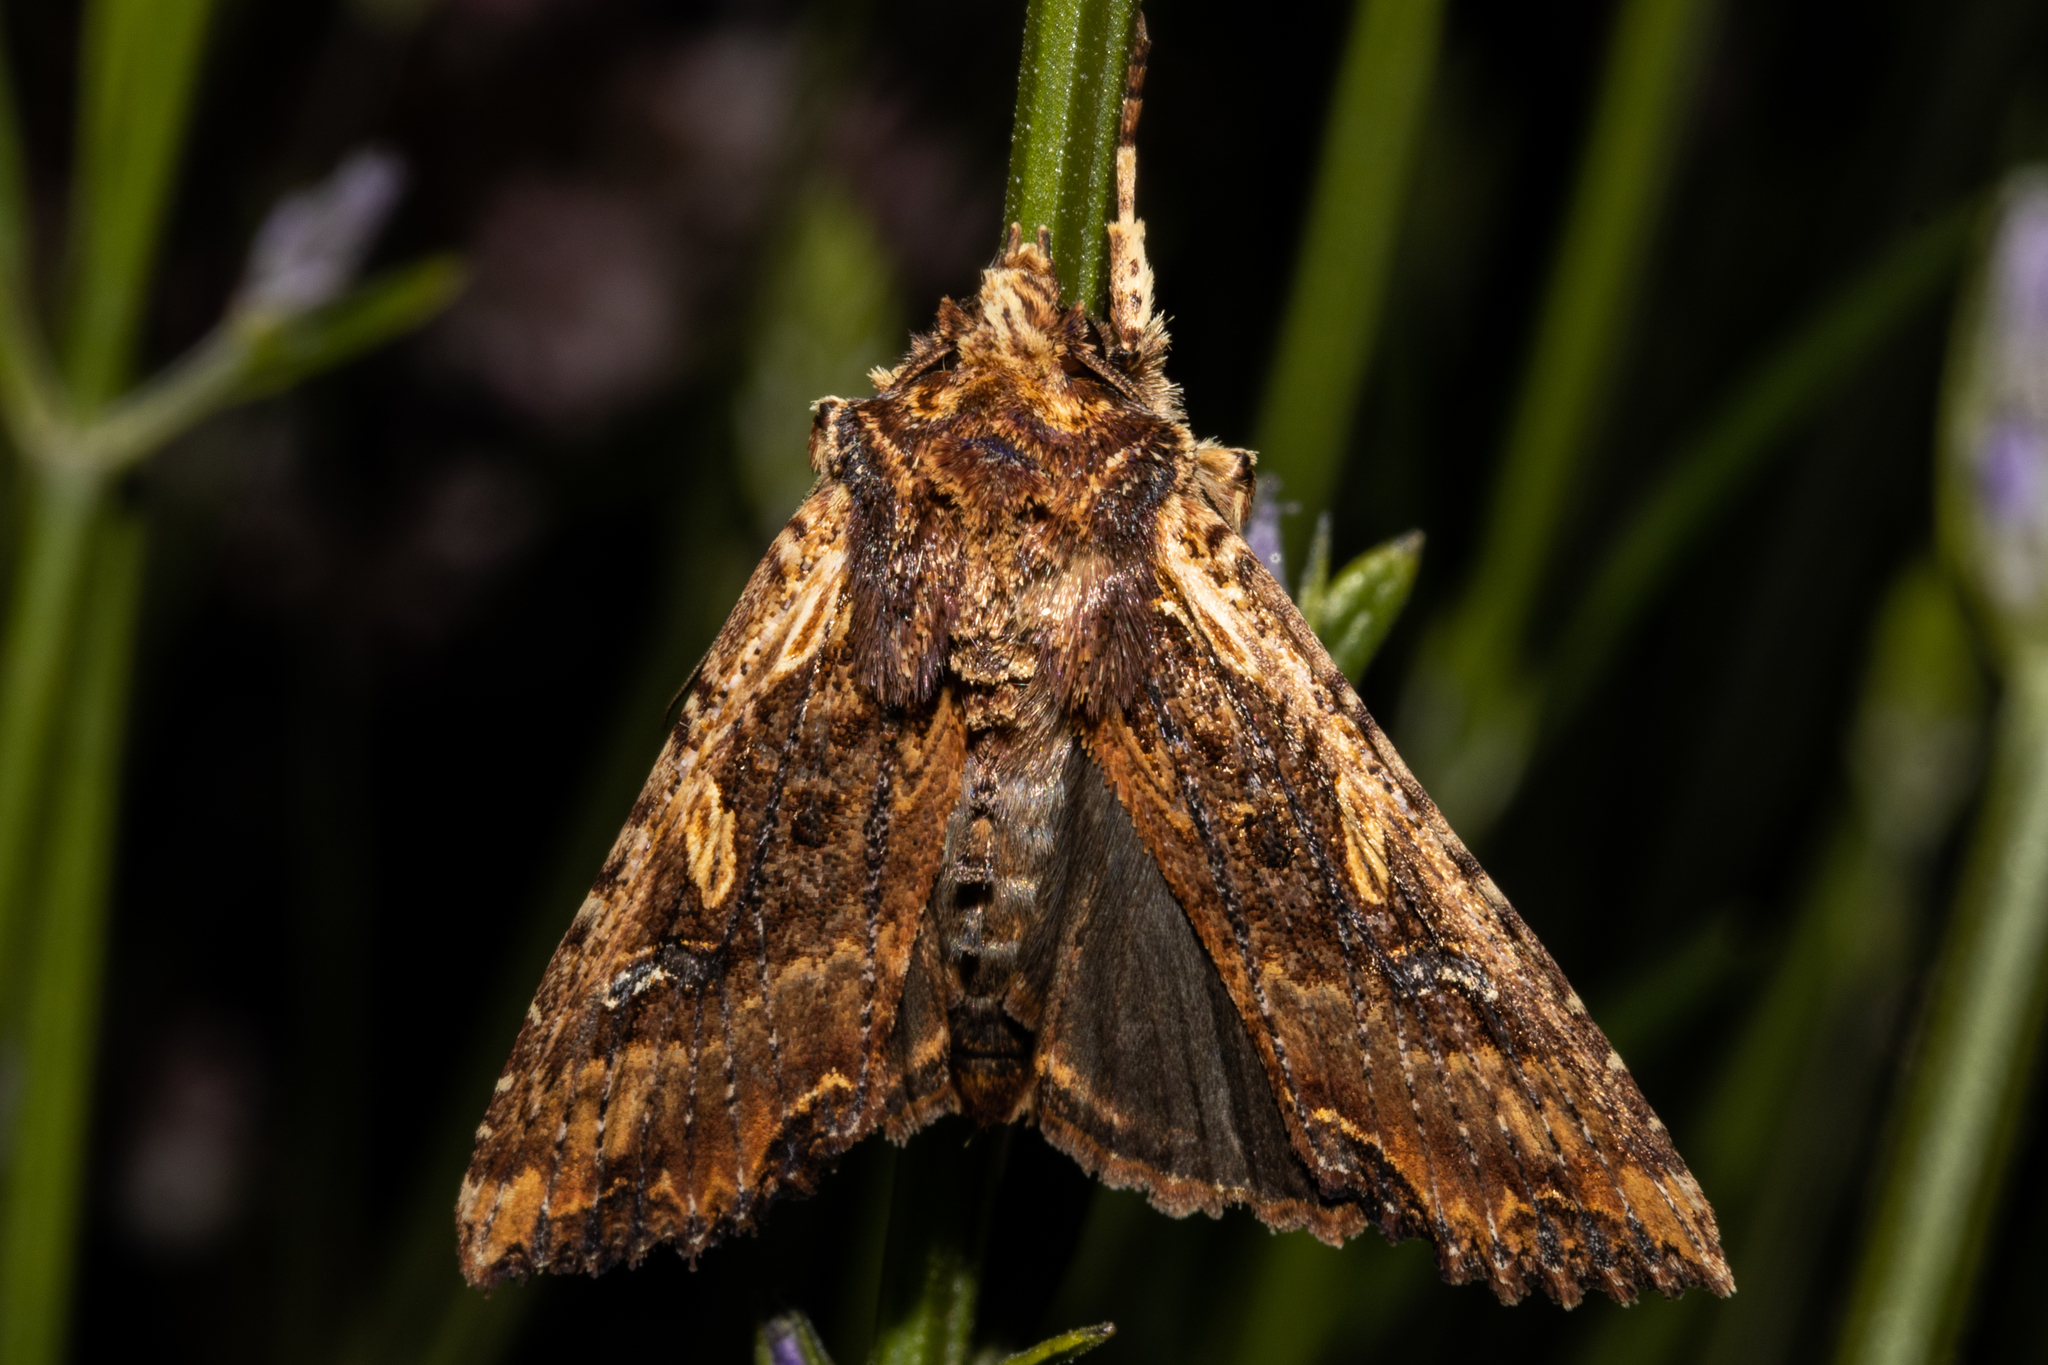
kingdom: Animalia
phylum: Arthropoda
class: Insecta
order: Lepidoptera
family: Noctuidae
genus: Meterana
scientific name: Meterana stipata
